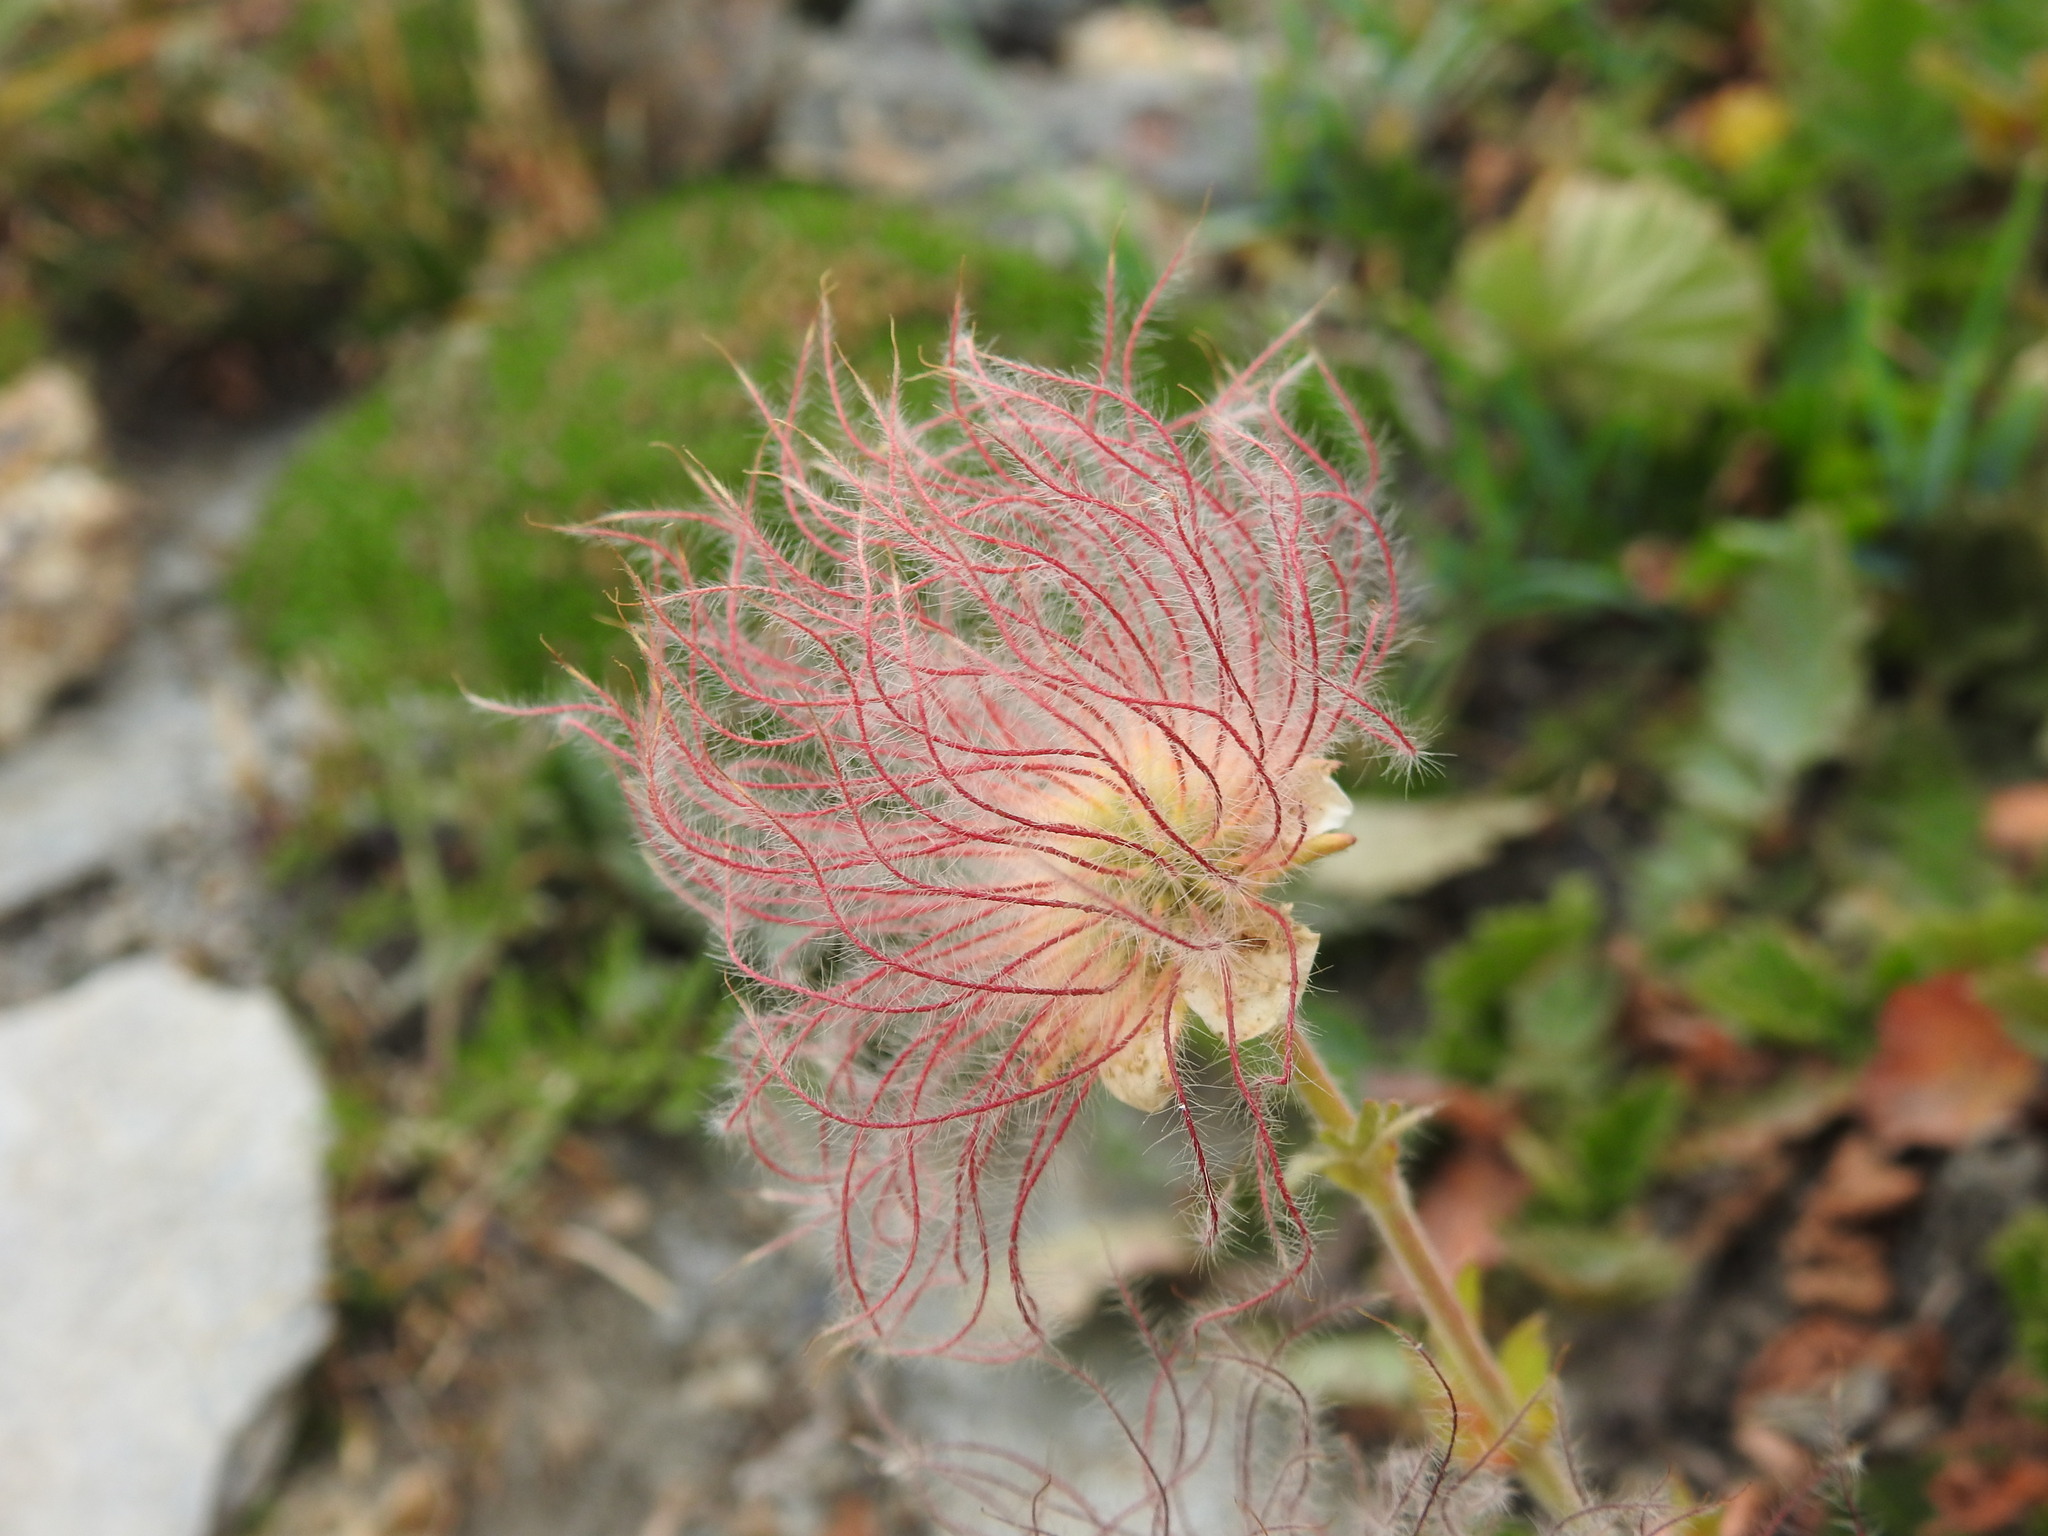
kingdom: Plantae
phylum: Tracheophyta
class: Magnoliopsida
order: Rosales
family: Rosaceae
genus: Geum
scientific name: Geum montanum
